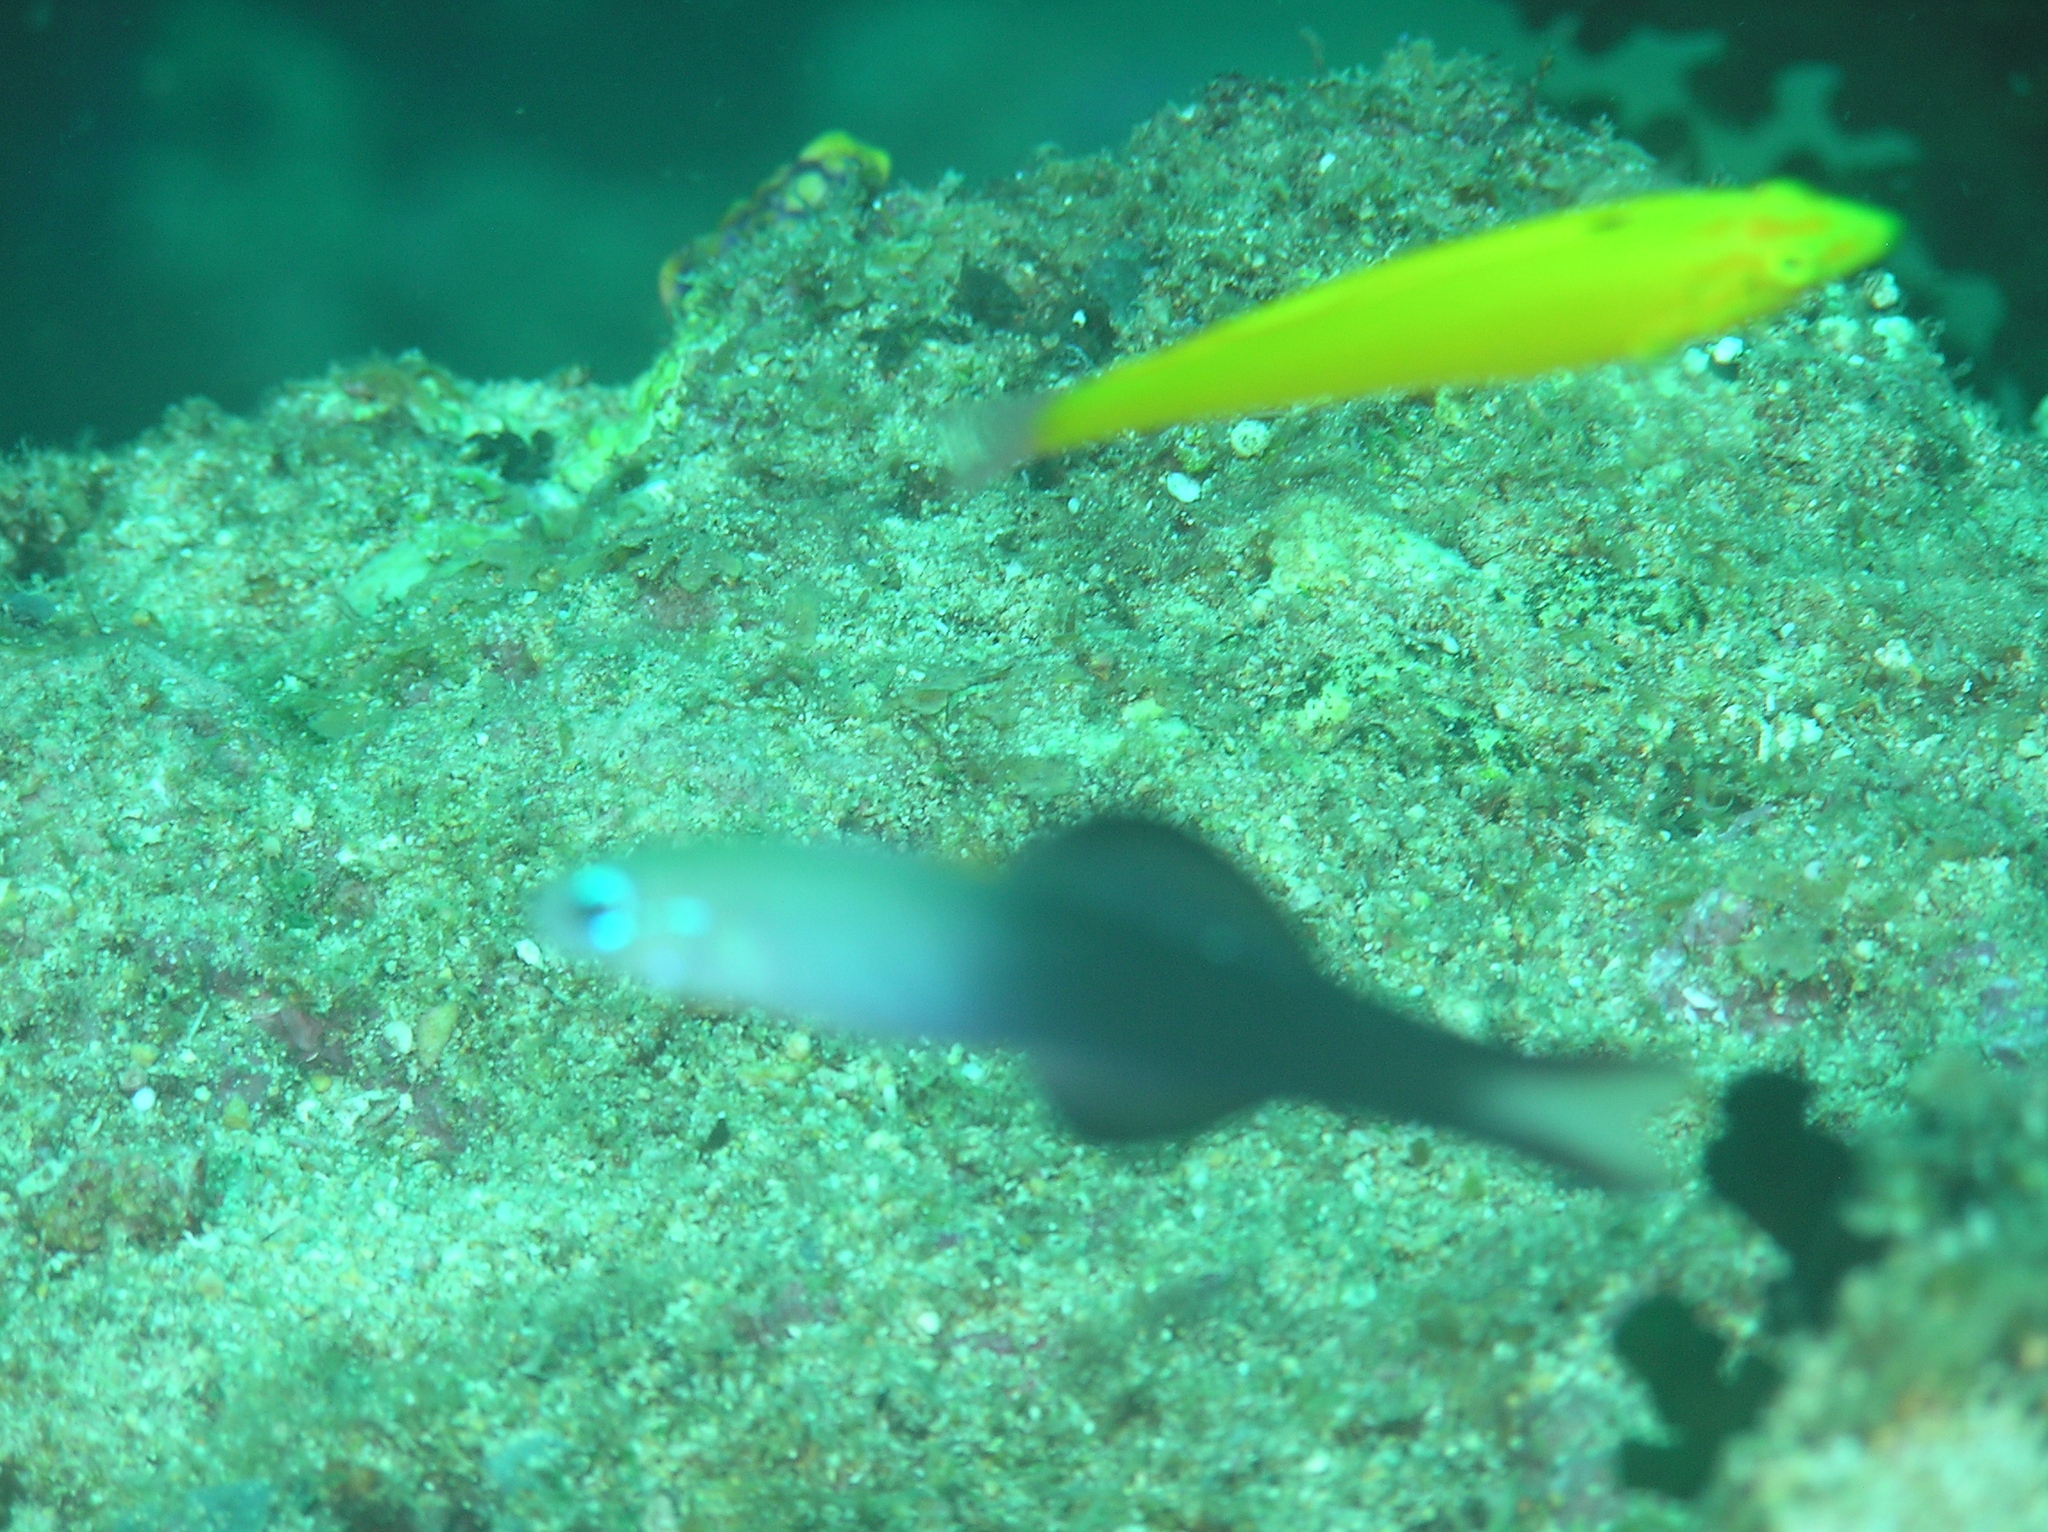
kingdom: Animalia
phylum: Chordata
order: Perciformes
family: Microdesmidae
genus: Ptereleotris
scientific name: Ptereleotris evides
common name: Blackfin dartfish
